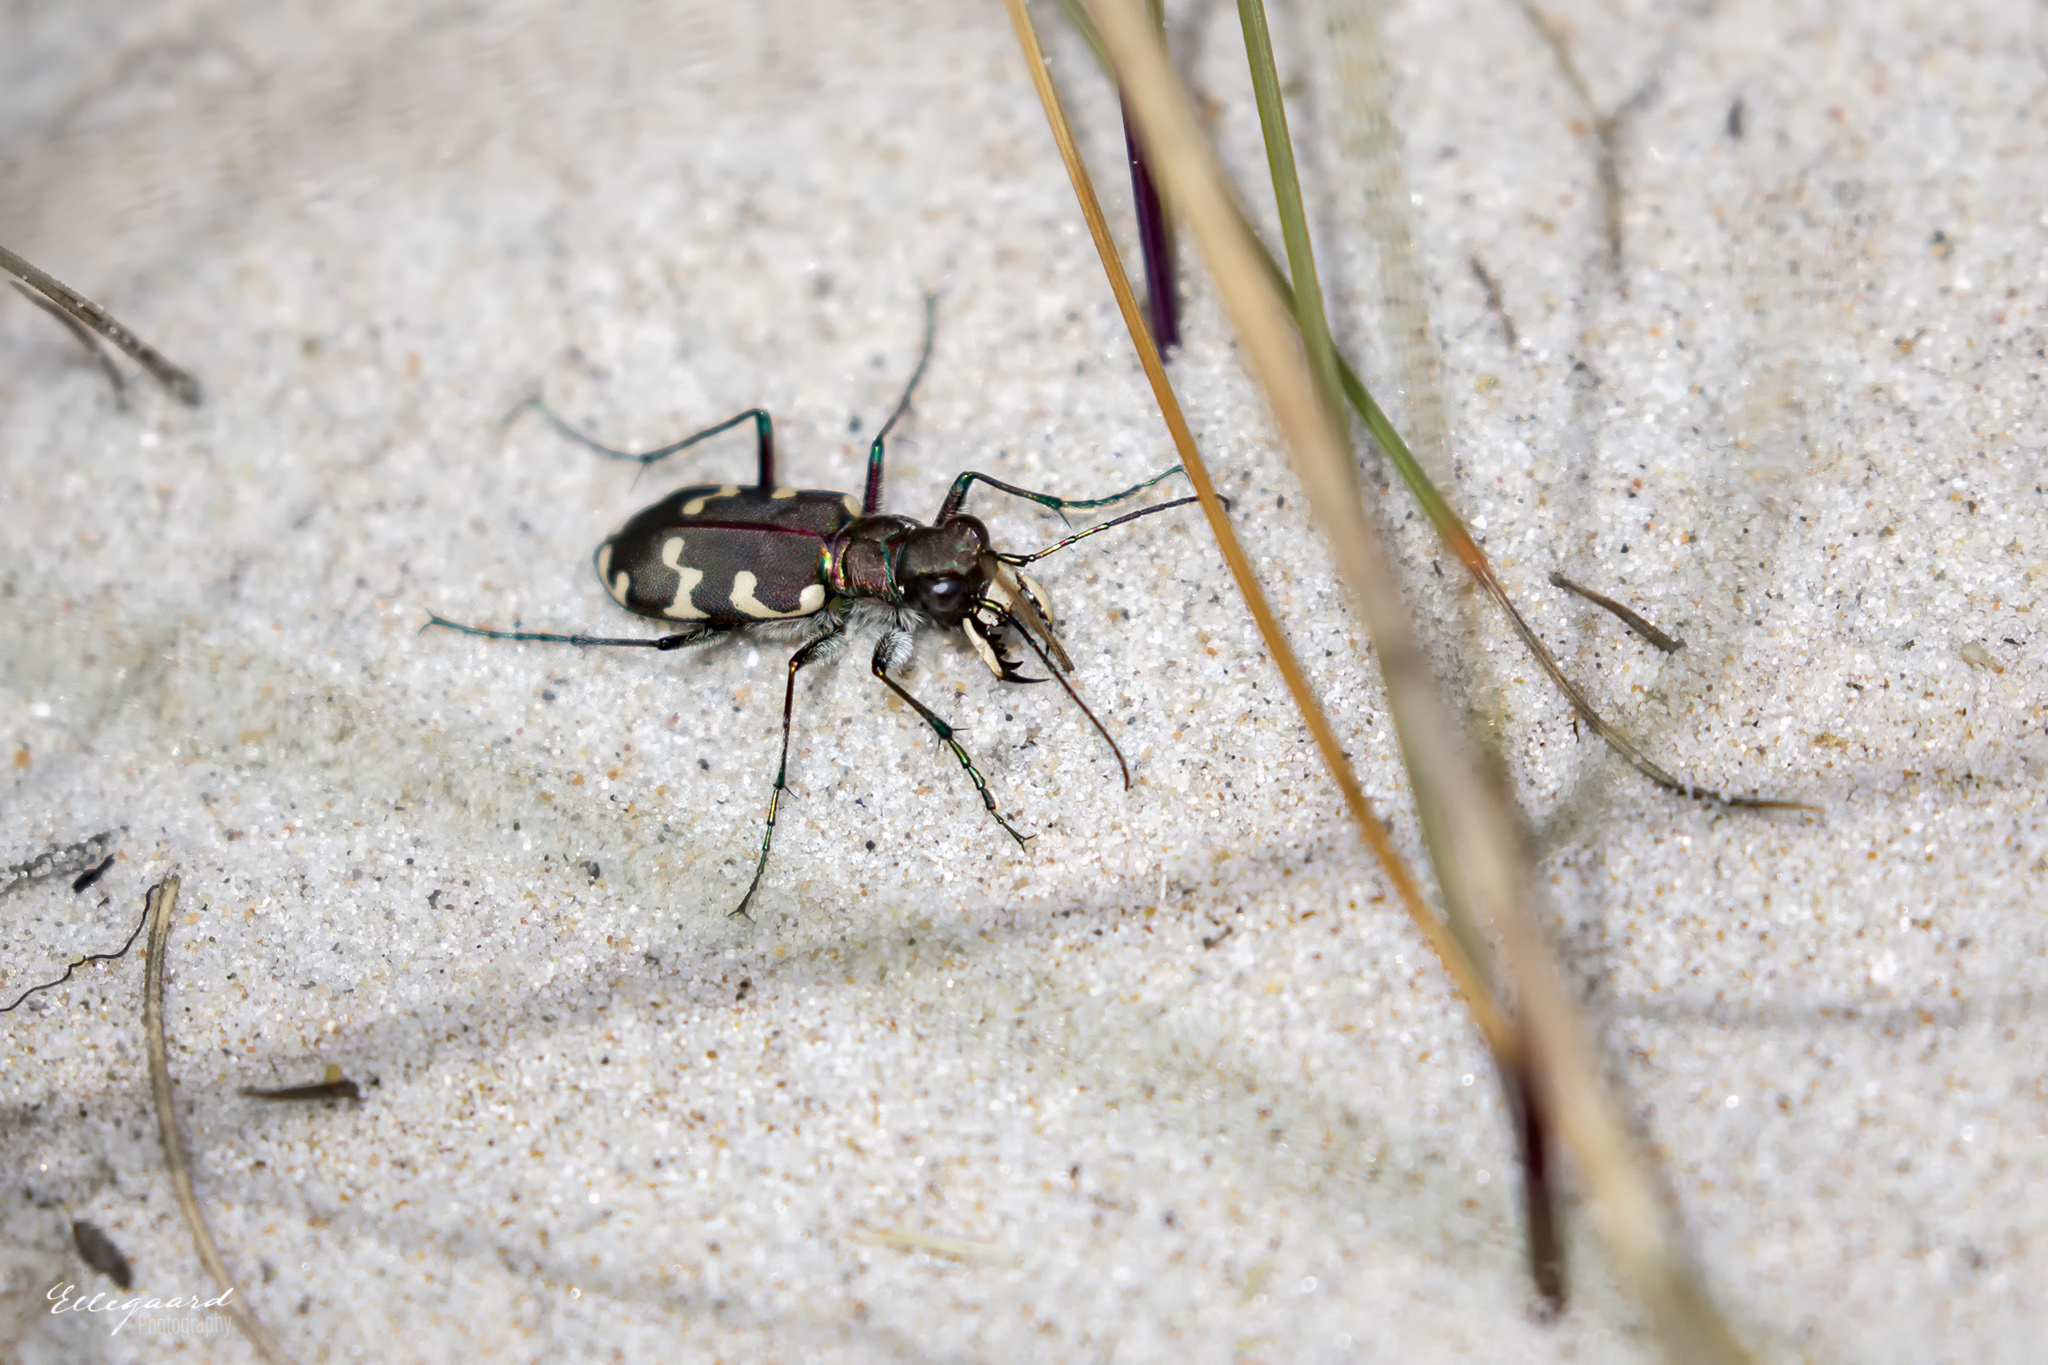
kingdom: Animalia
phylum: Arthropoda
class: Insecta
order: Coleoptera
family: Carabidae
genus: Cicindela
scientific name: Cicindela hybrida
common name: Northern dune tiger beetle
